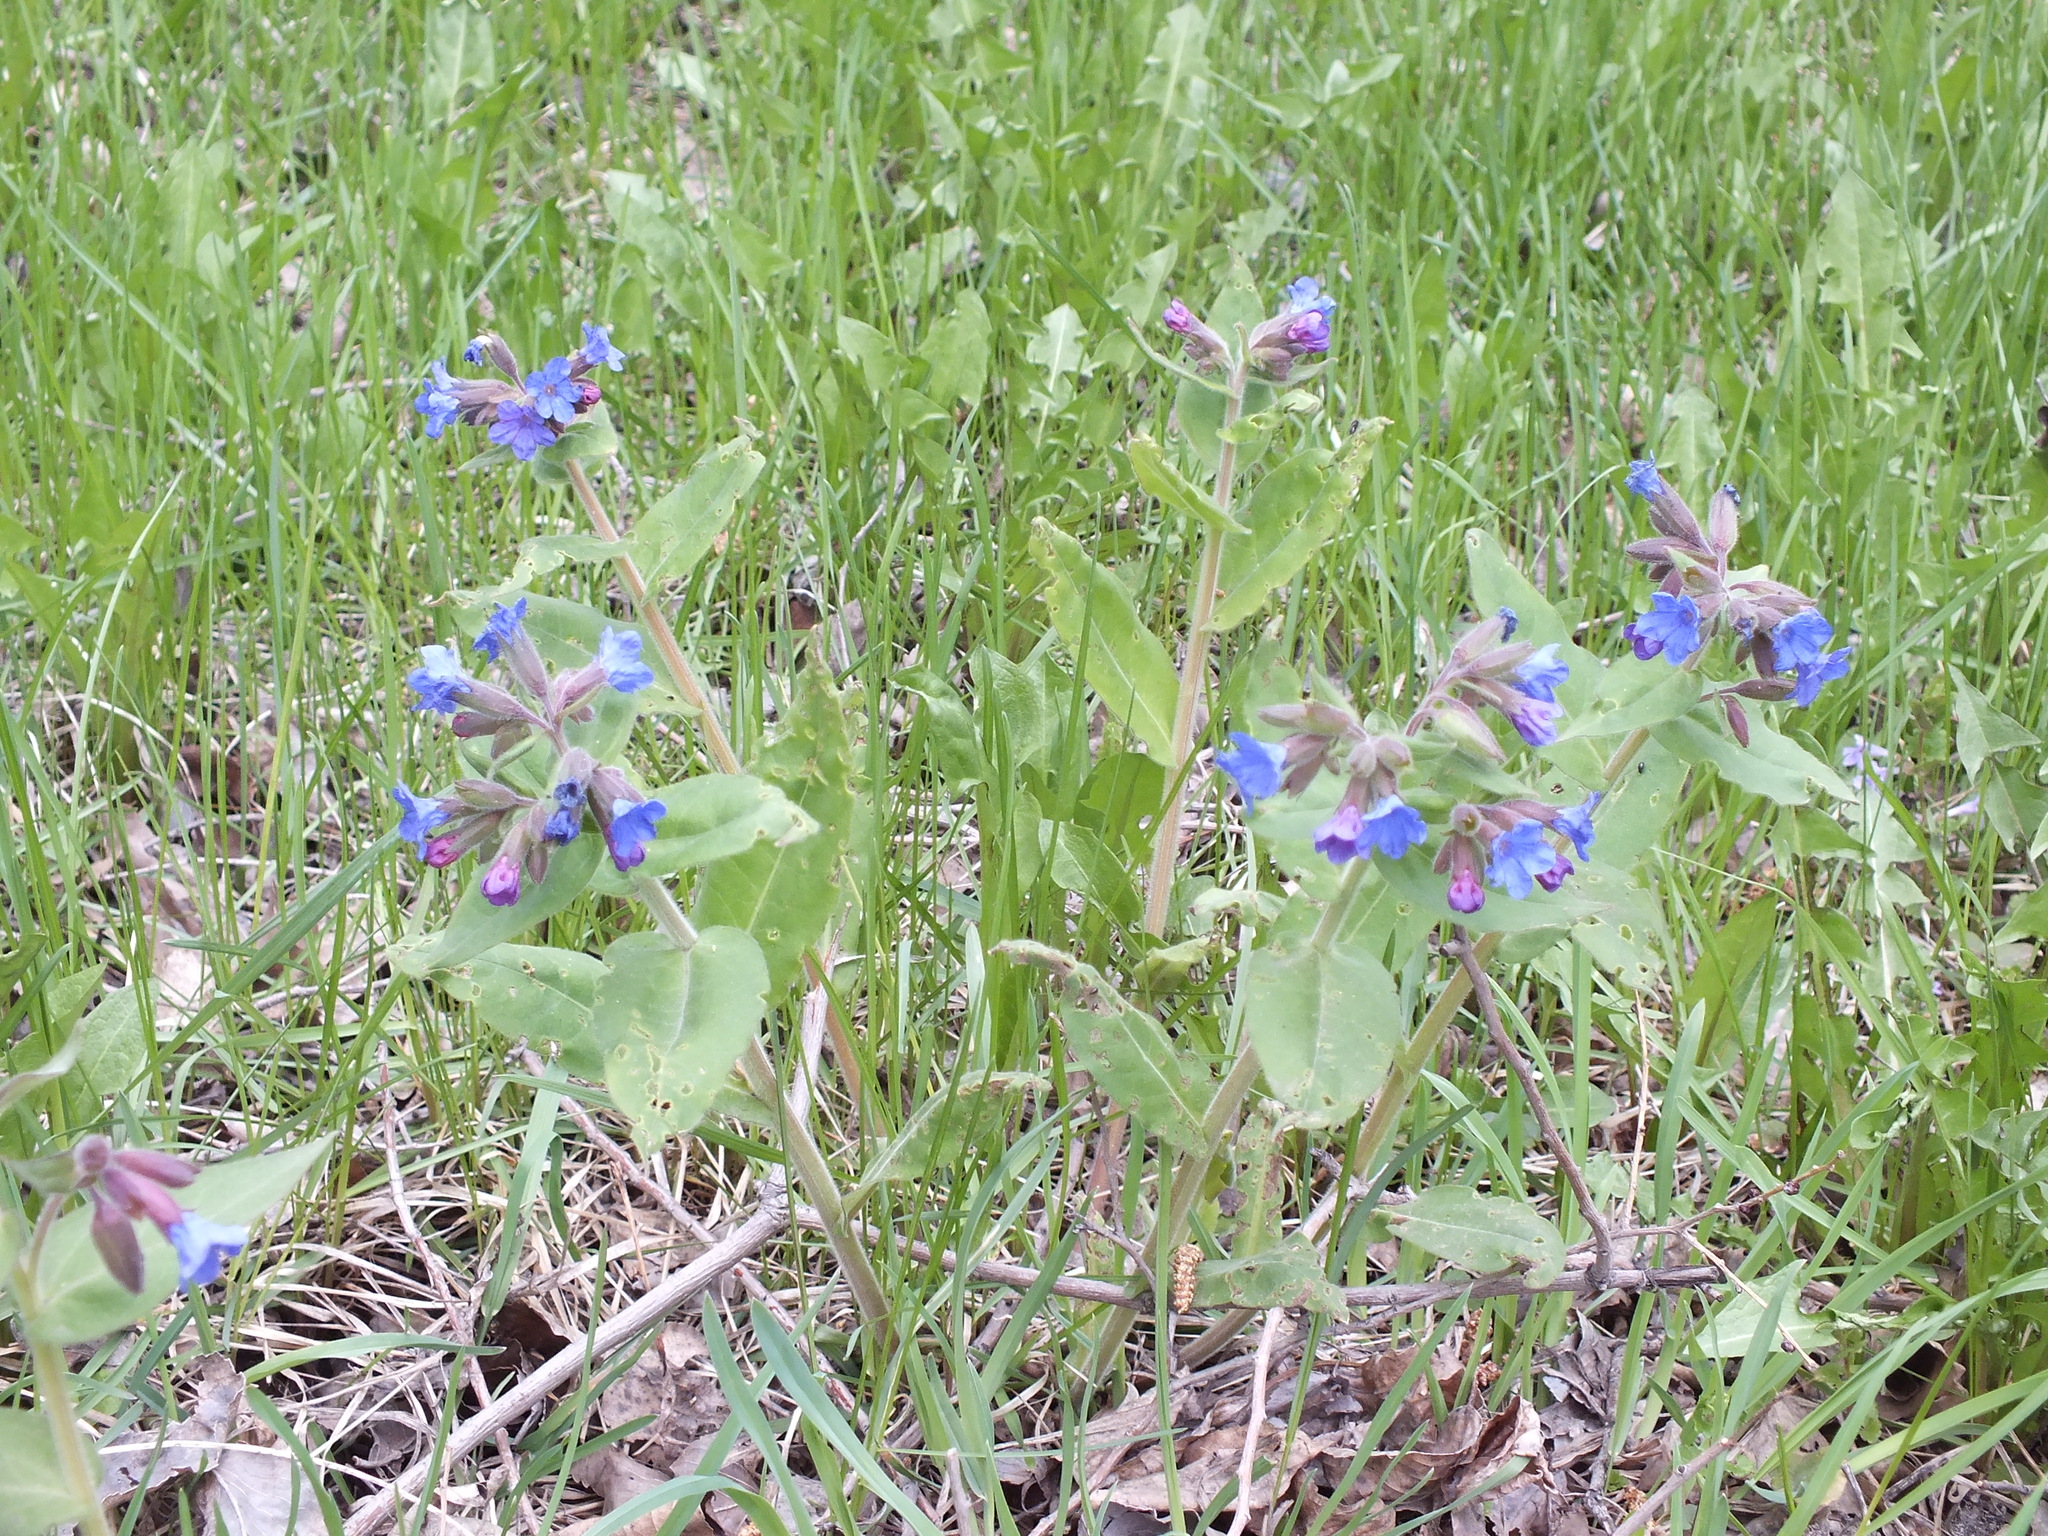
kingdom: Plantae
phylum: Tracheophyta
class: Magnoliopsida
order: Boraginales
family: Boraginaceae
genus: Pulmonaria
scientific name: Pulmonaria mollis
